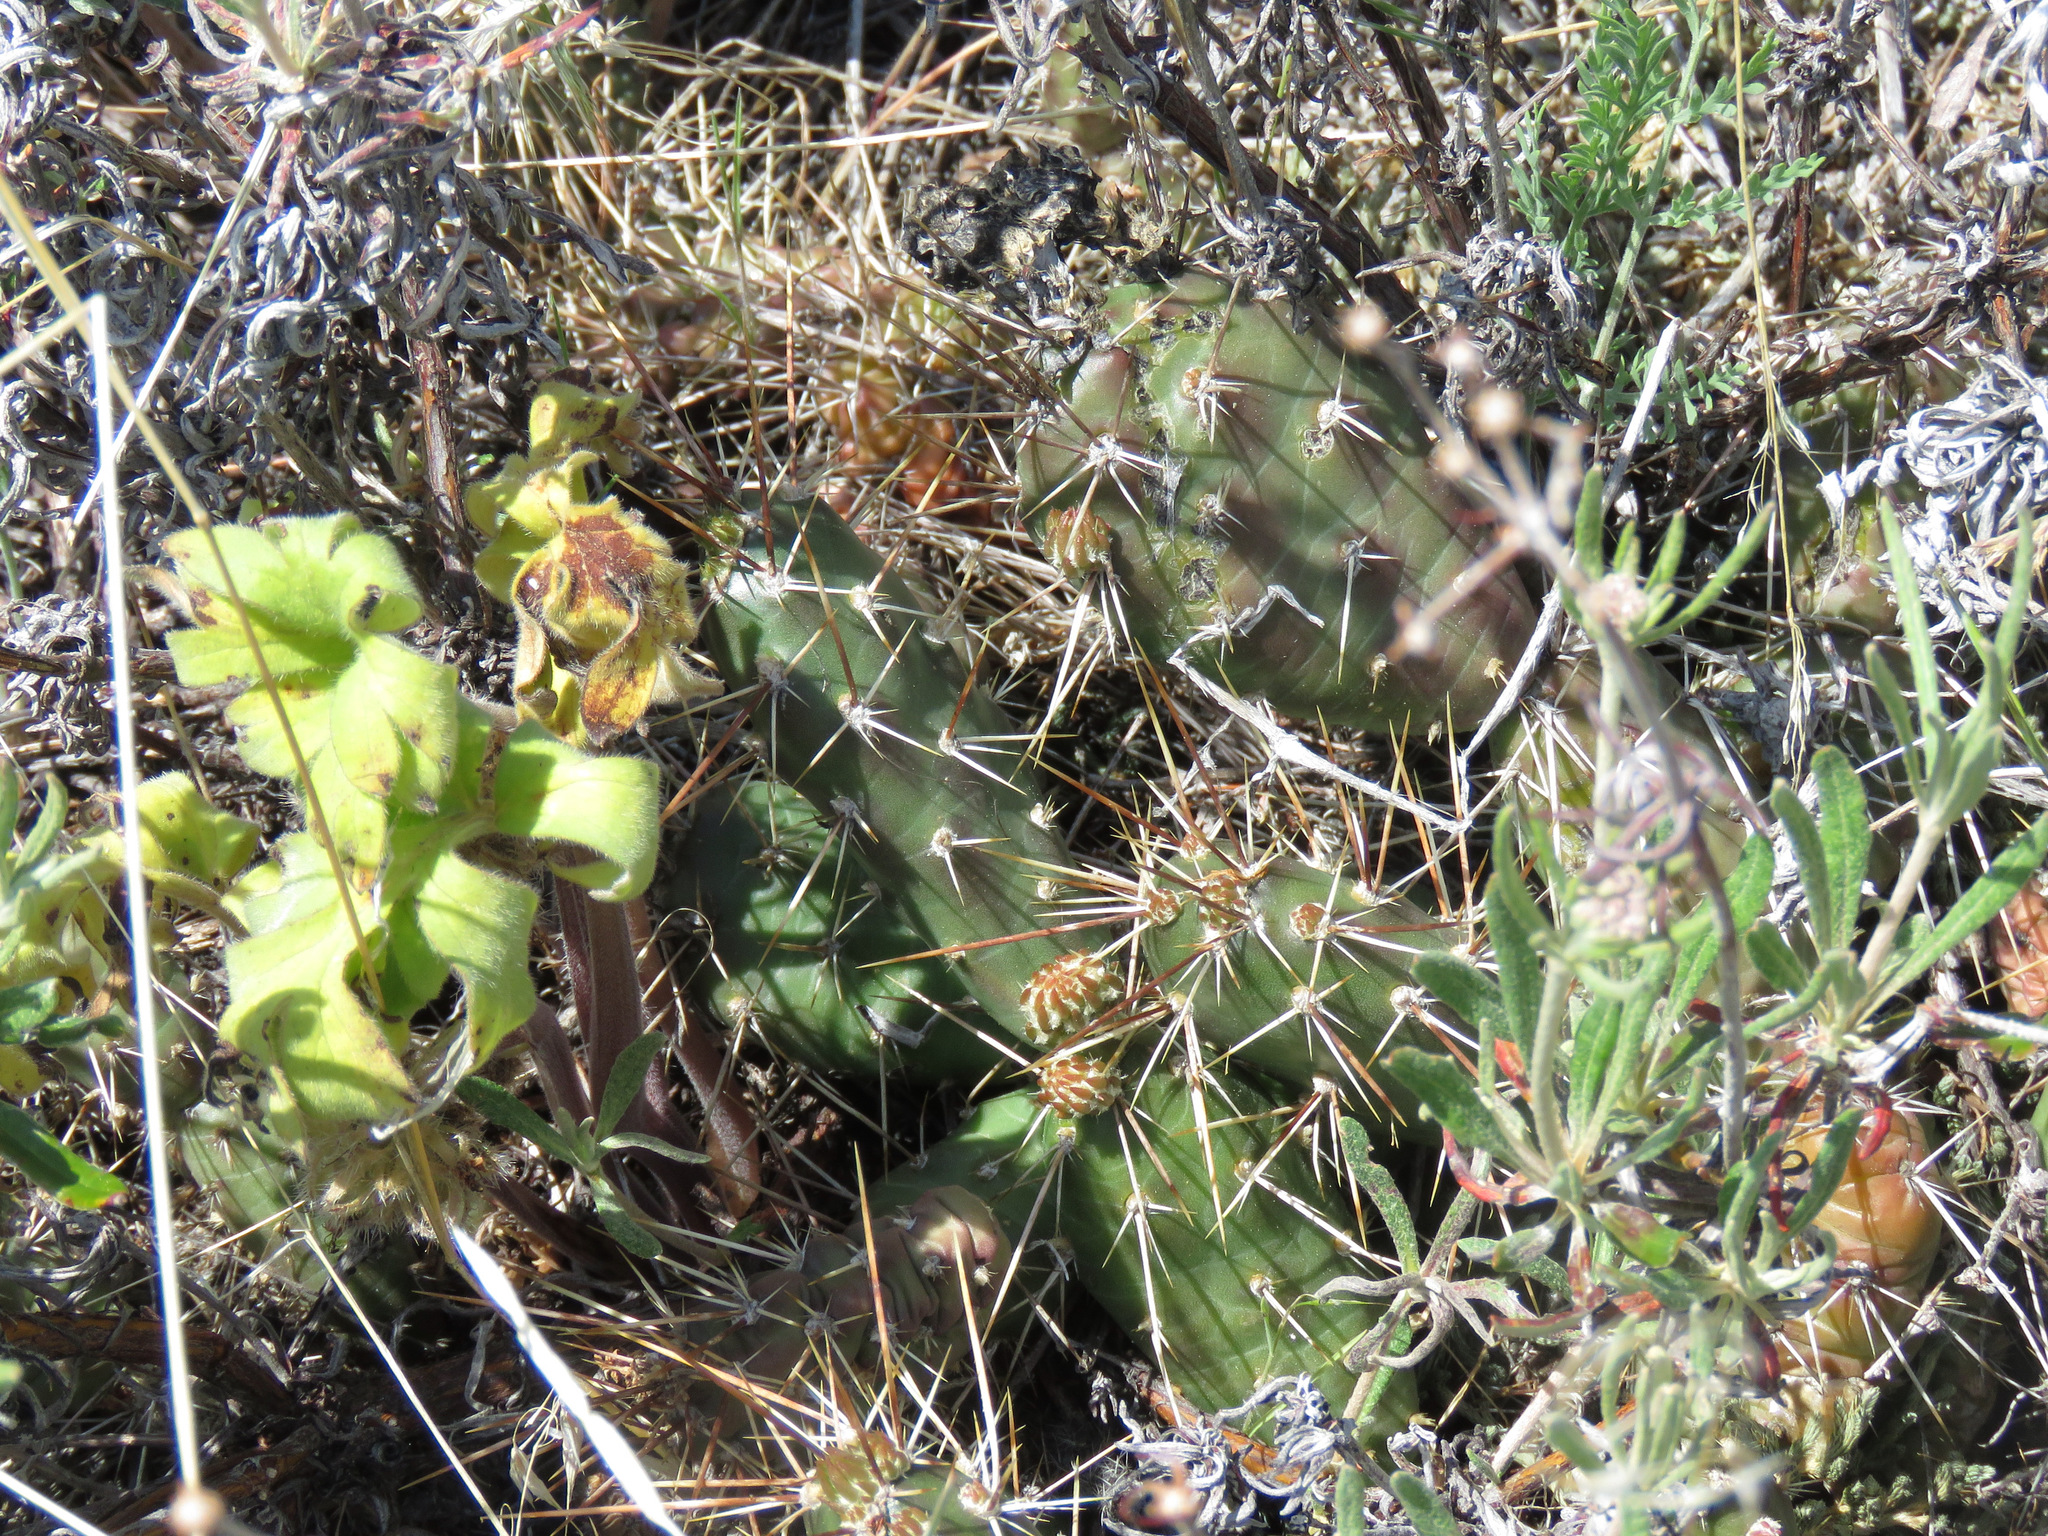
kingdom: Plantae
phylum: Tracheophyta
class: Magnoliopsida
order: Caryophyllales
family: Cactaceae
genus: Opuntia
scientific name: Opuntia fragilis
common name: Brittle cactus
